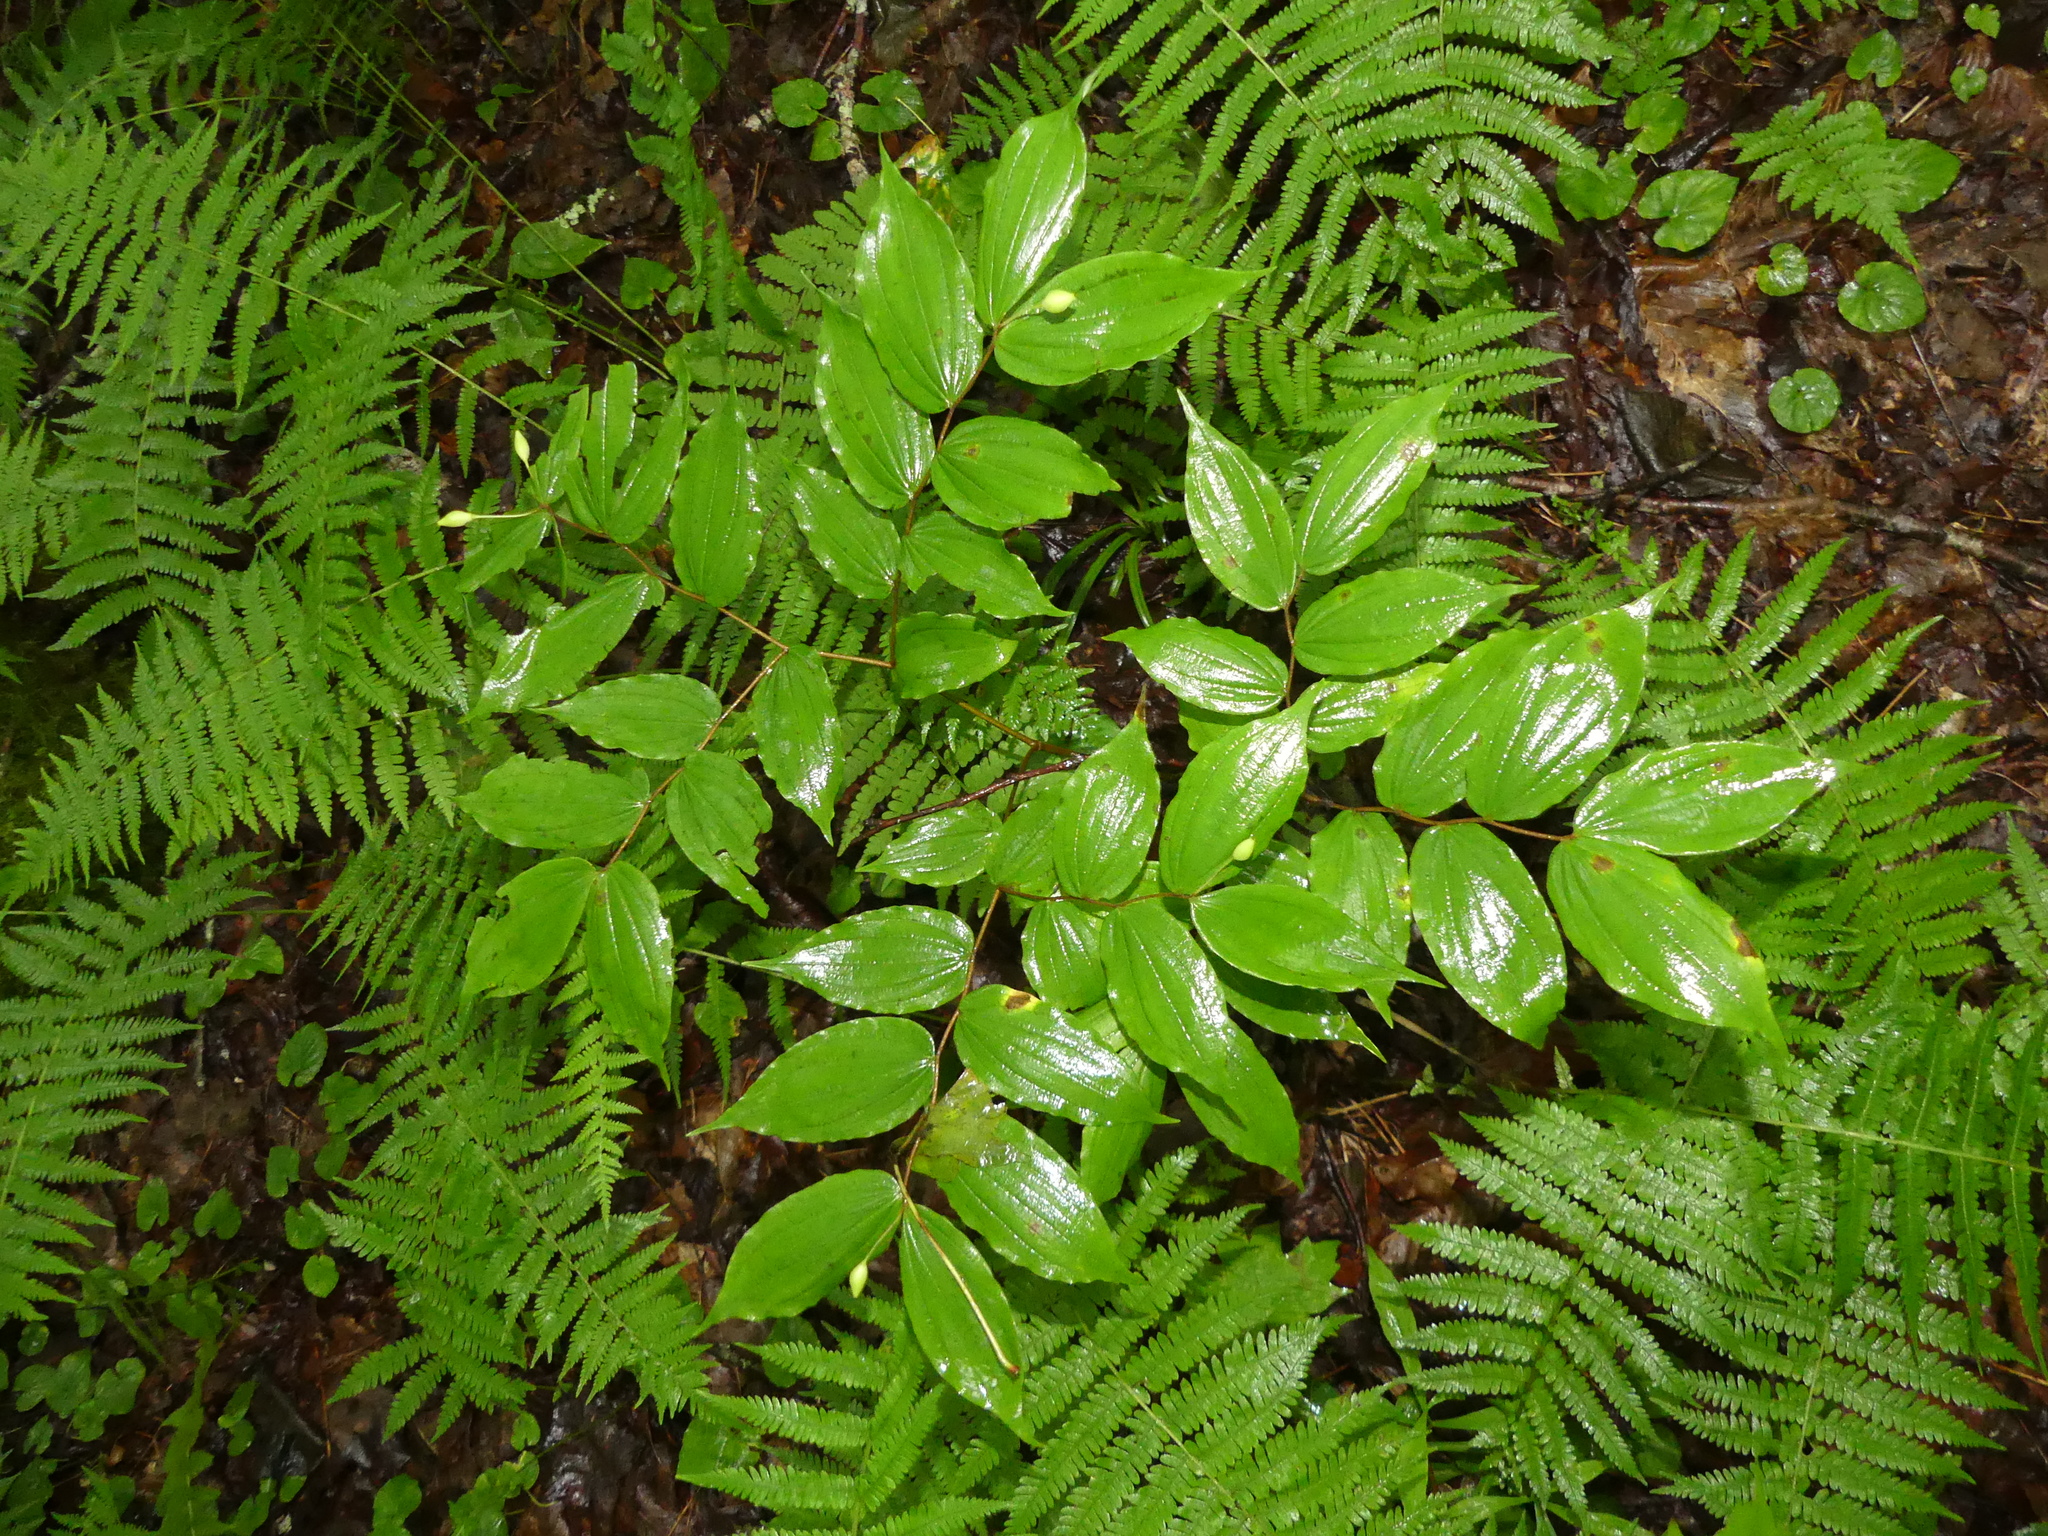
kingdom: Plantae
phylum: Tracheophyta
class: Liliopsida
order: Liliales
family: Liliaceae
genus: Prosartes
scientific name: Prosartes lanuginosa
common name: Hairy mandarin
